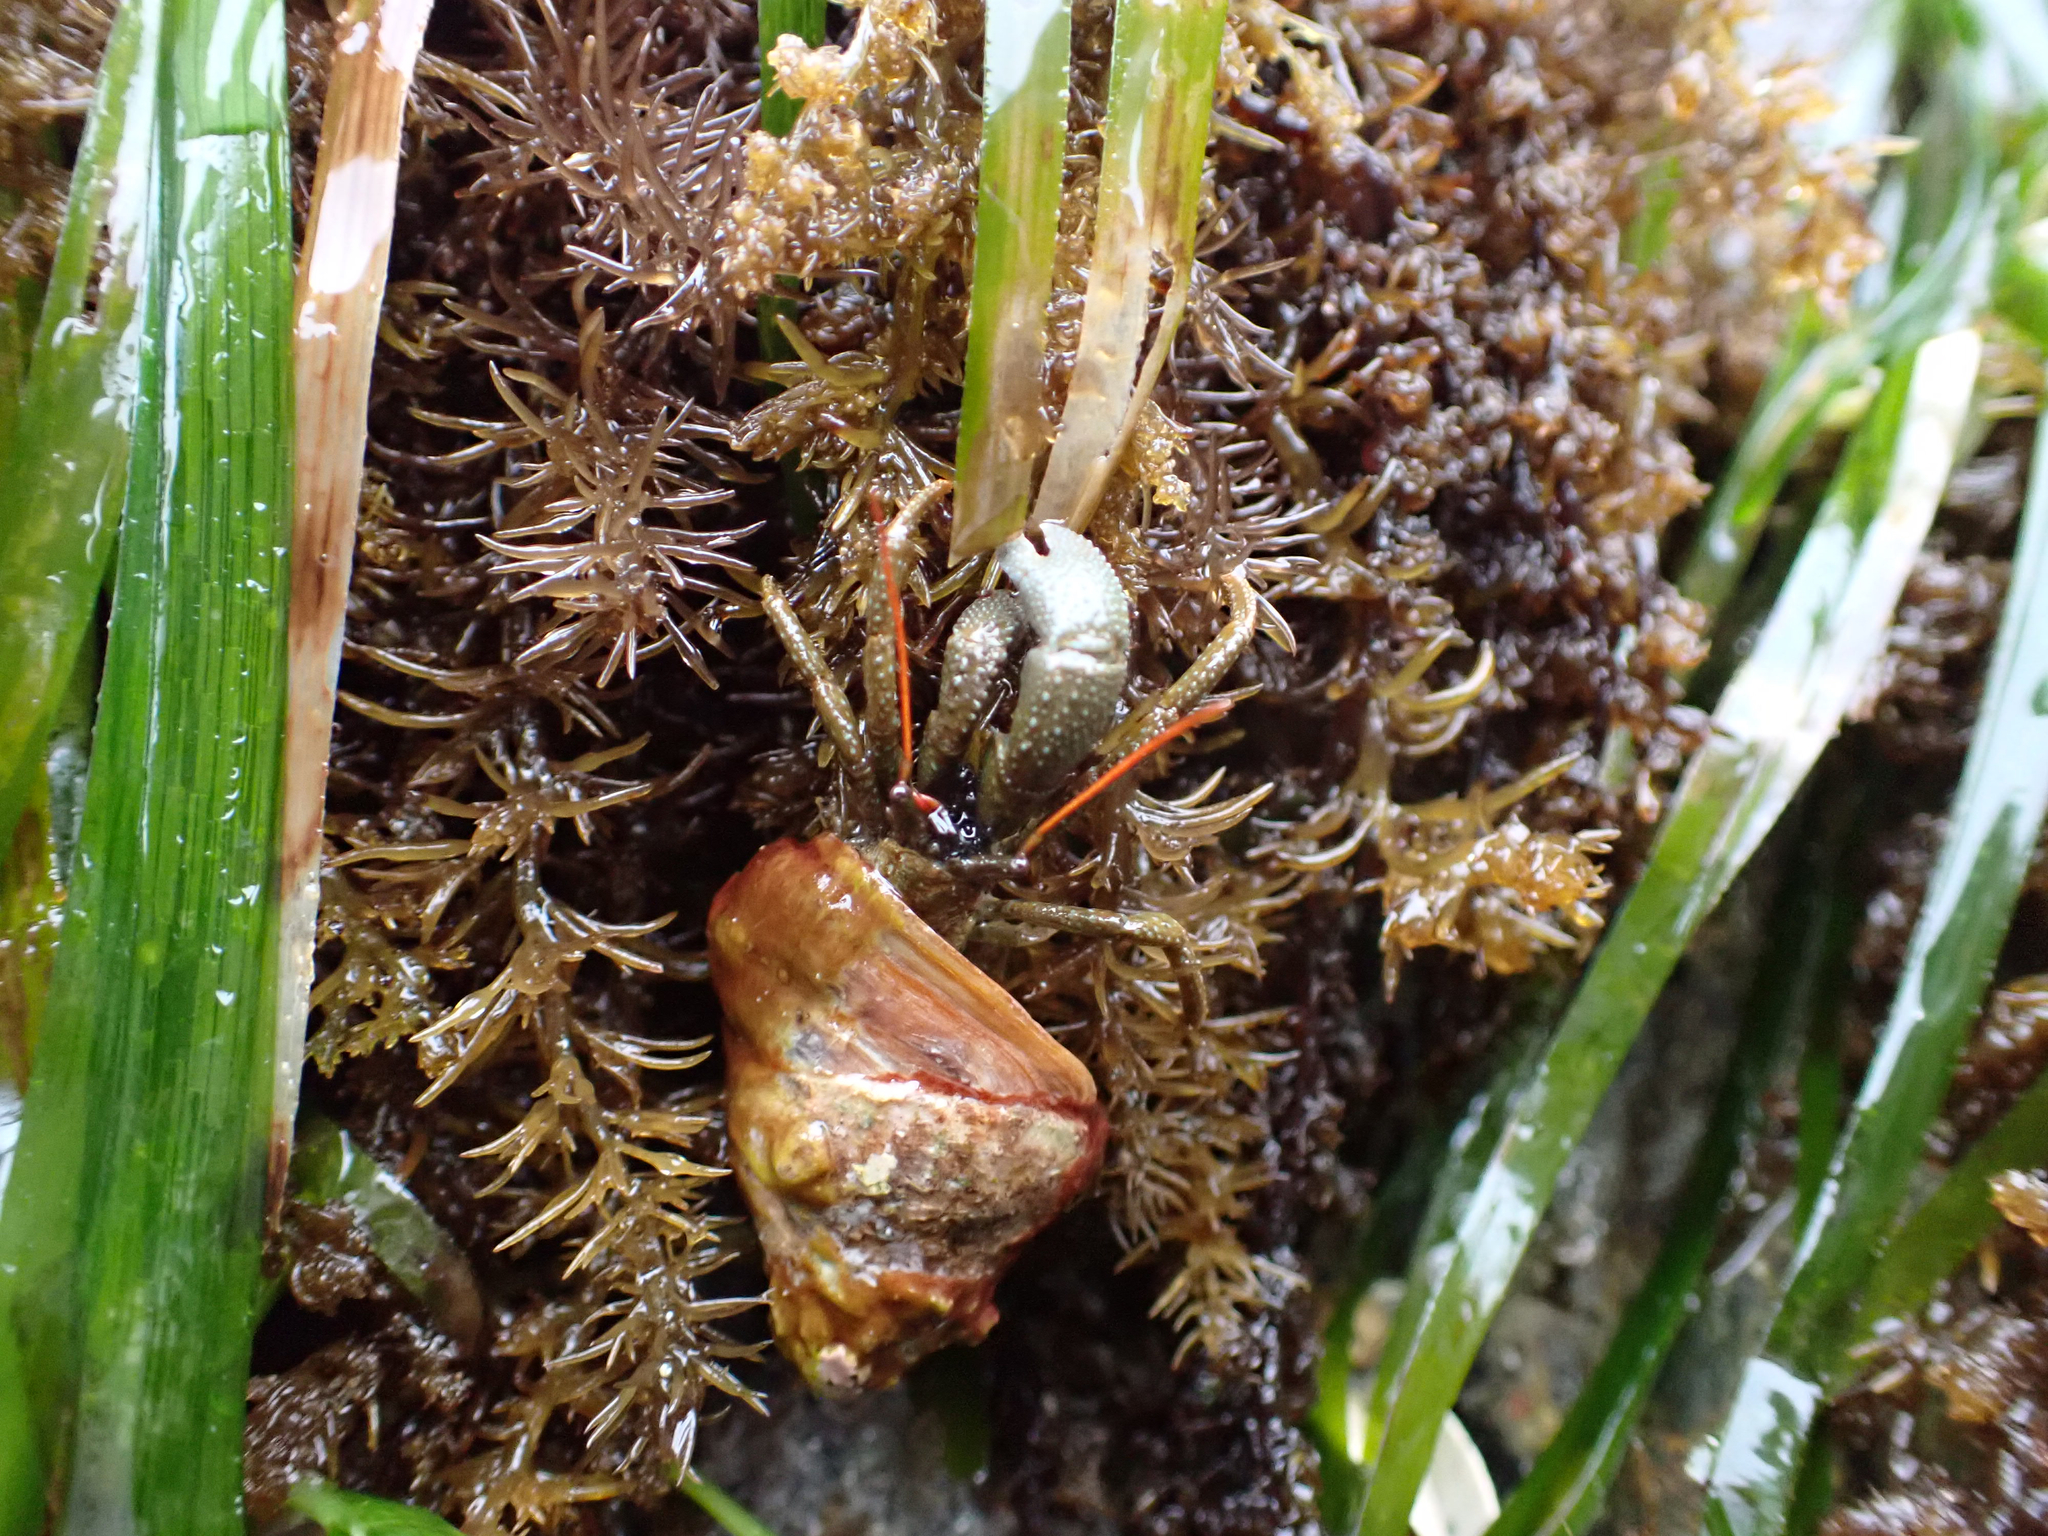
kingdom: Animalia
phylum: Arthropoda
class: Malacostraca
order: Decapoda
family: Paguridae
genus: Pagurus
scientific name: Pagurus granosimanus
